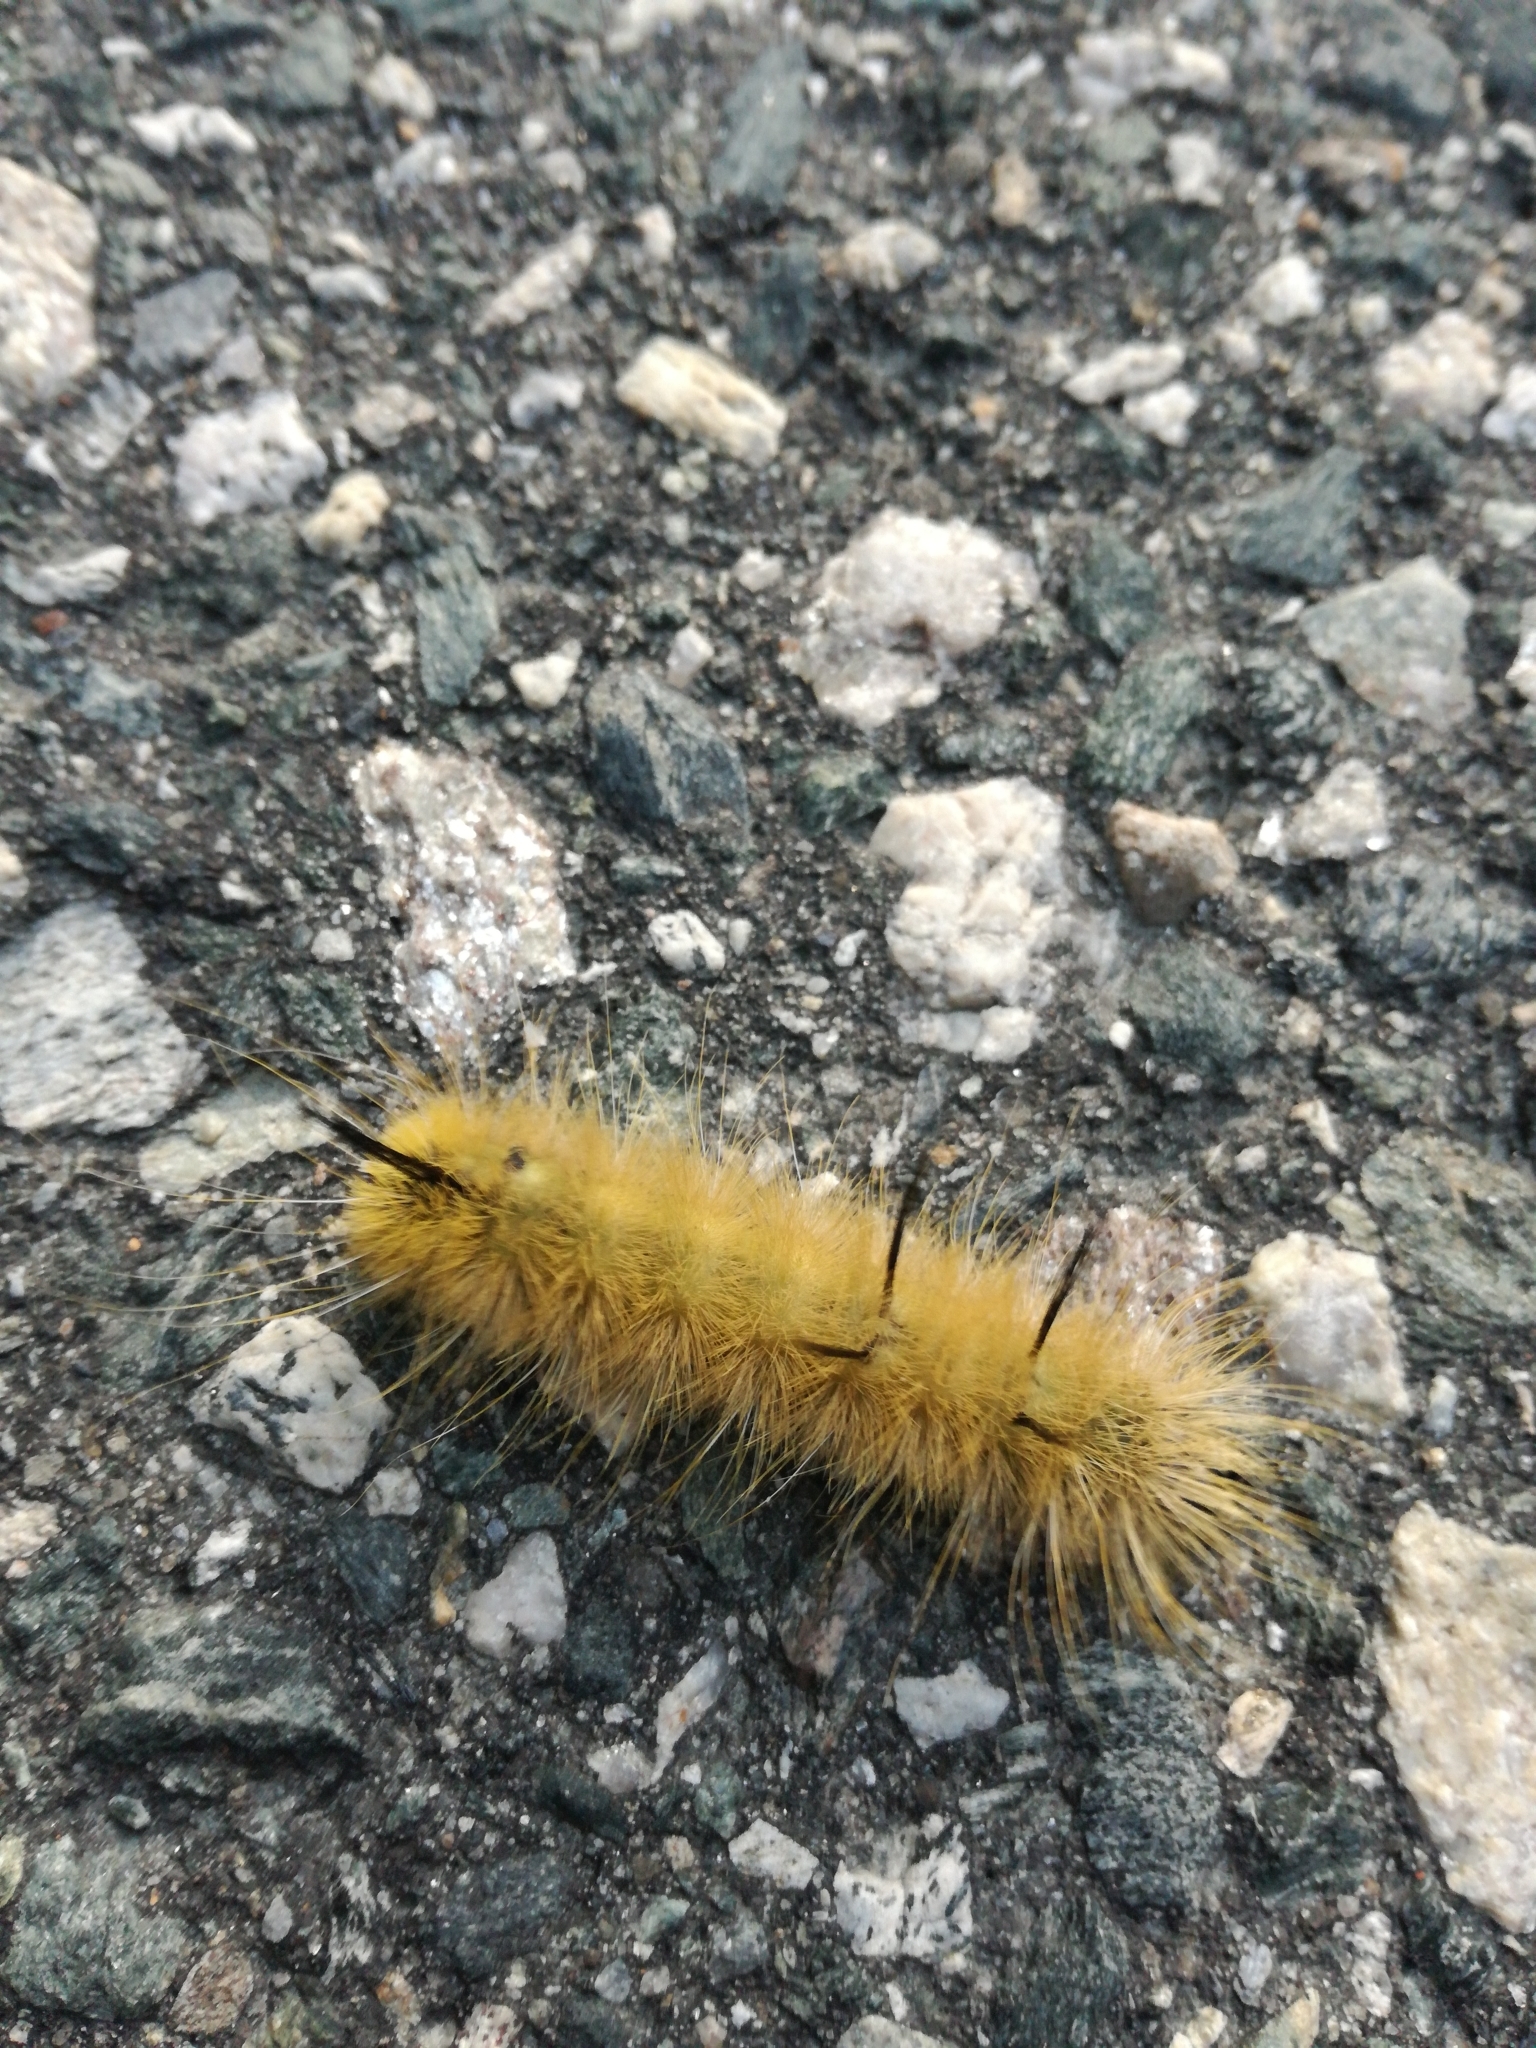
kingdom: Animalia
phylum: Arthropoda
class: Insecta
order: Lepidoptera
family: Noctuidae
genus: Acronicta
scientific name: Acronicta americana
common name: American dagger
